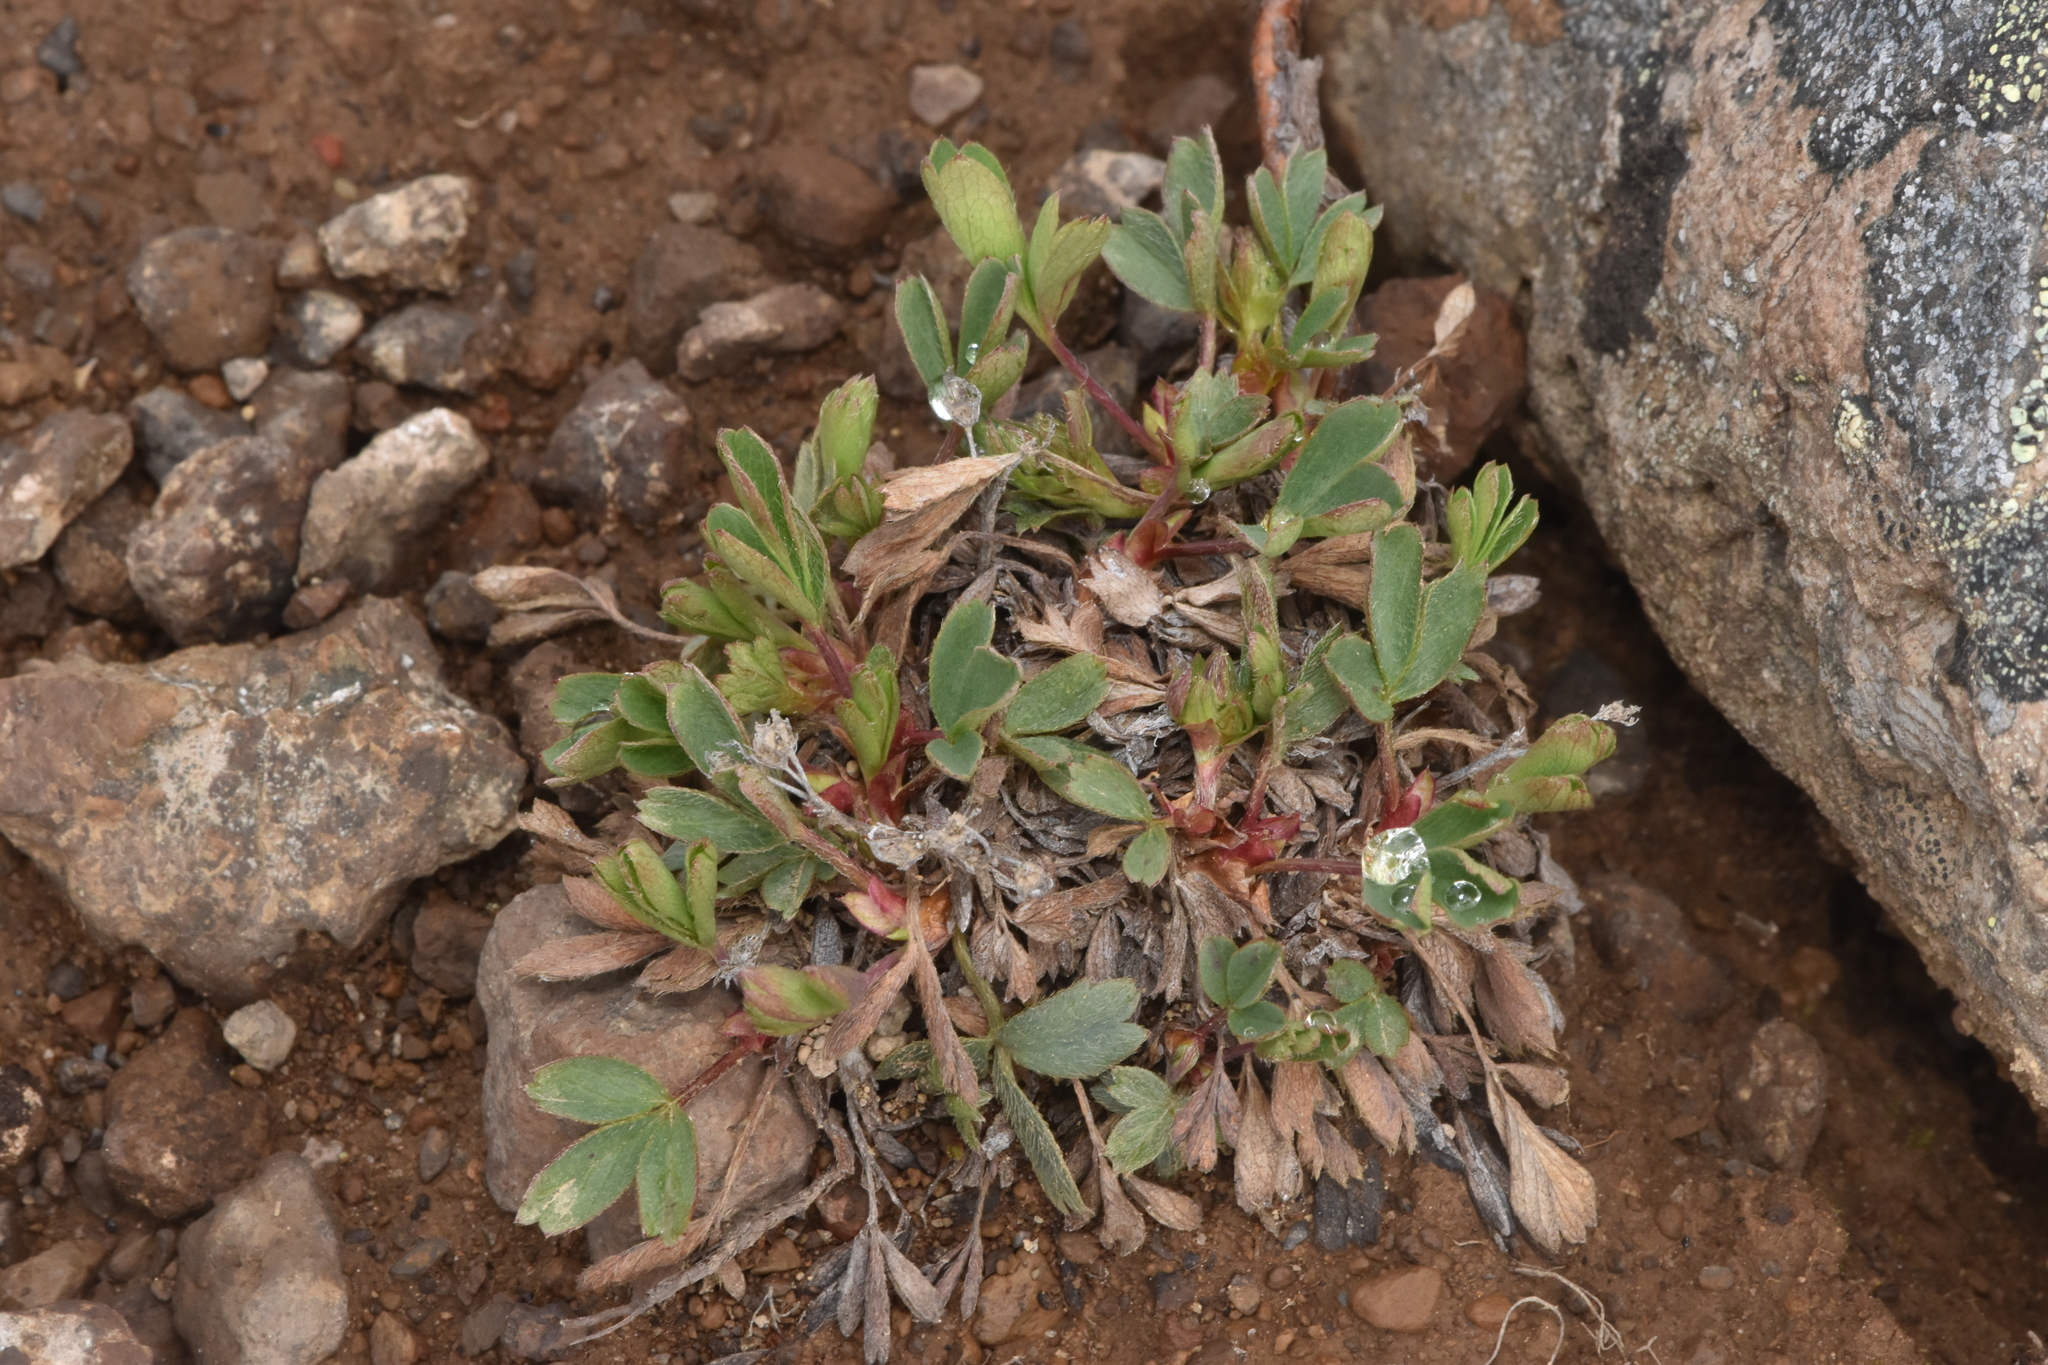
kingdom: Plantae
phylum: Tracheophyta
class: Magnoliopsida
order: Rosales
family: Rosaceae
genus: Sibbaldia
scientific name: Sibbaldia procumbens
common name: Creeping sibbaldia
